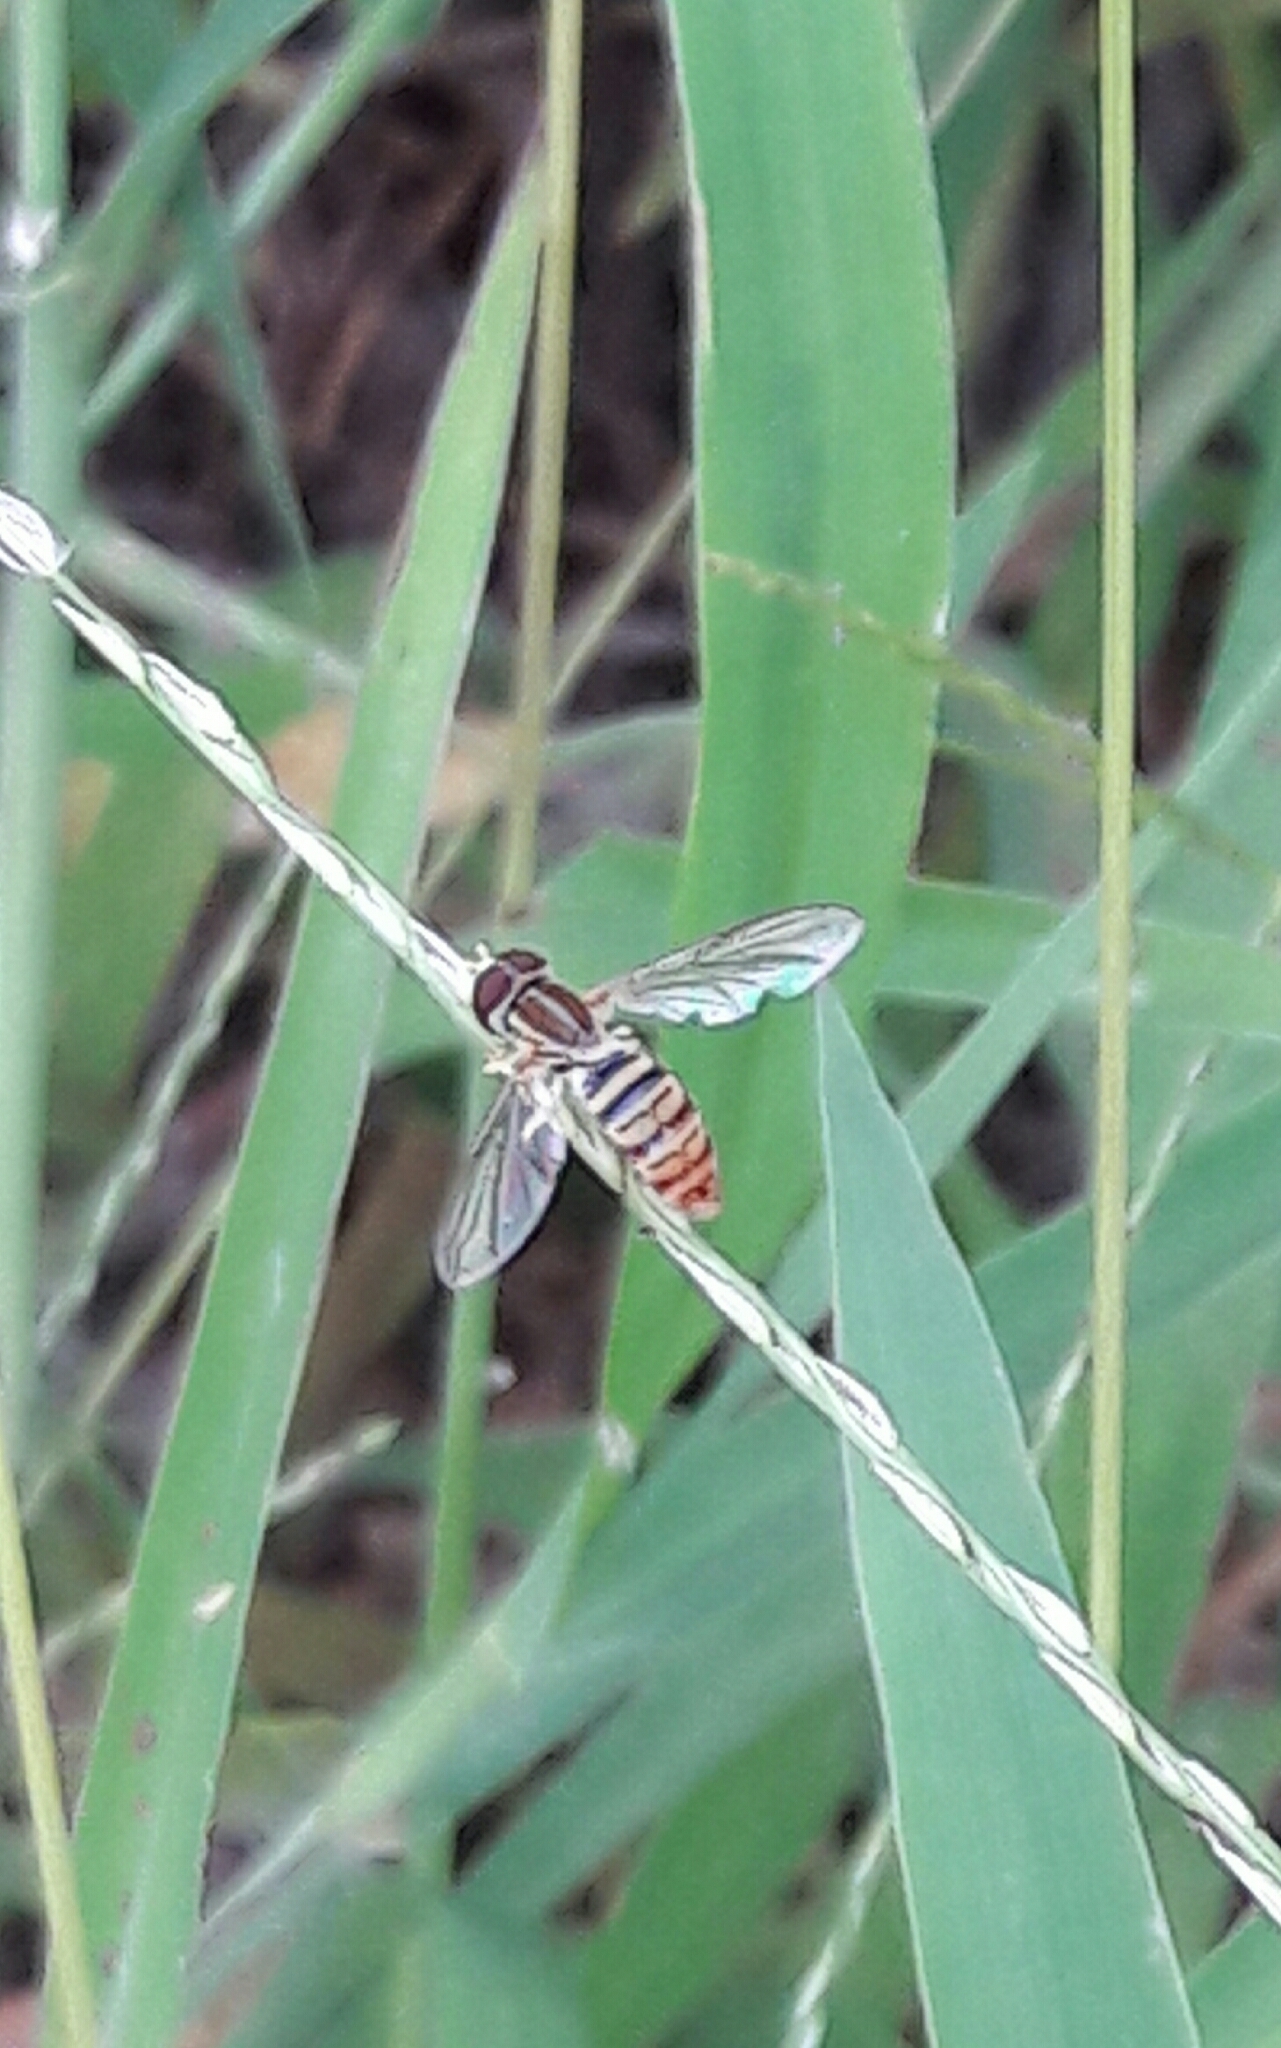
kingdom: Animalia
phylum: Arthropoda
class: Insecta
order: Diptera
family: Syrphidae
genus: Toxomerus
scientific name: Toxomerus politus
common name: Maize calligrapher
